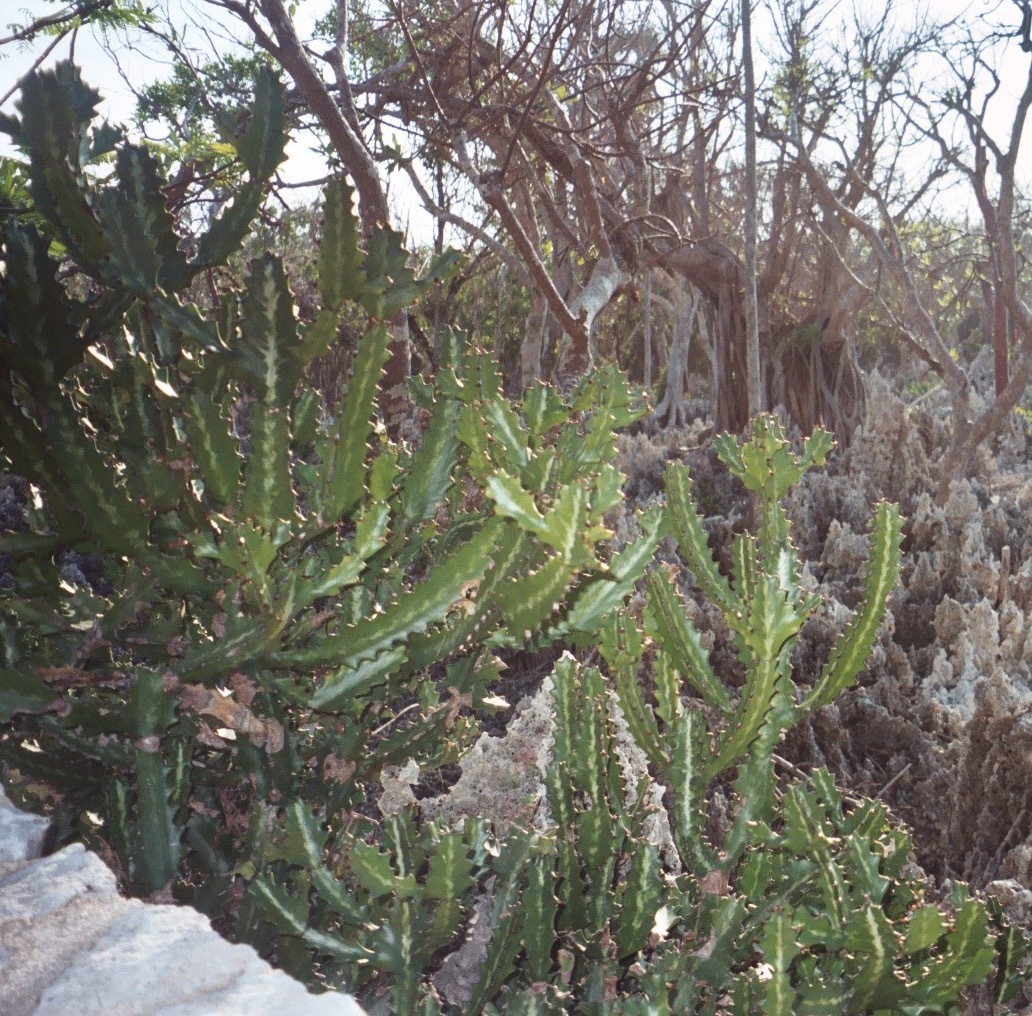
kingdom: Plantae
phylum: Tracheophyta
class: Magnoliopsida
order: Malpighiales
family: Euphorbiaceae
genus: Euphorbia
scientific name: Euphorbia lactea
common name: Mottled spurge
